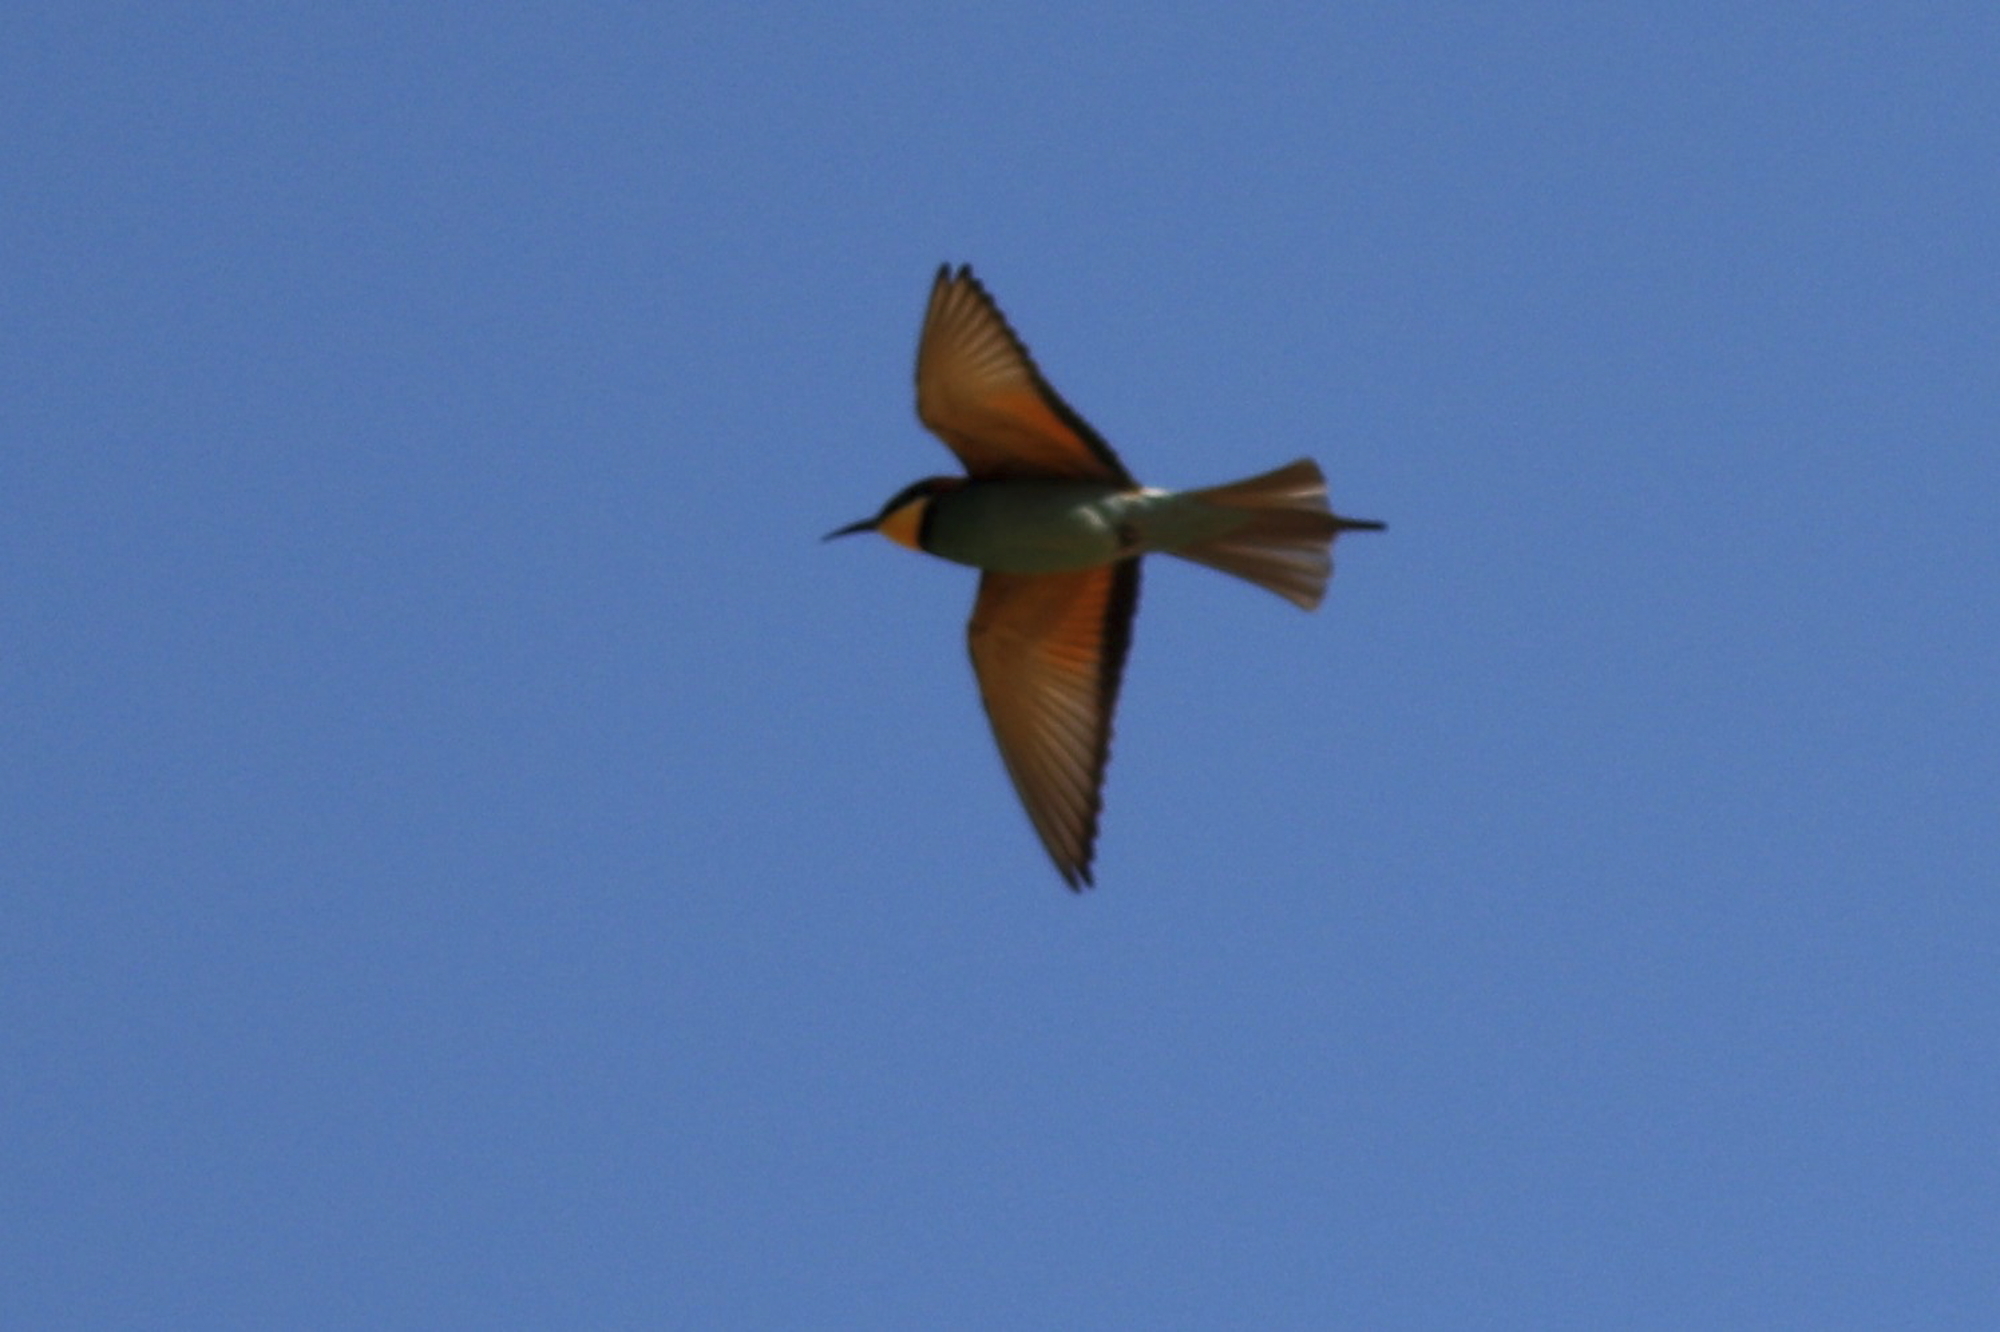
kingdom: Animalia
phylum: Chordata
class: Aves
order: Coraciiformes
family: Meropidae
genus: Merops
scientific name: Merops apiaster
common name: European bee-eater
